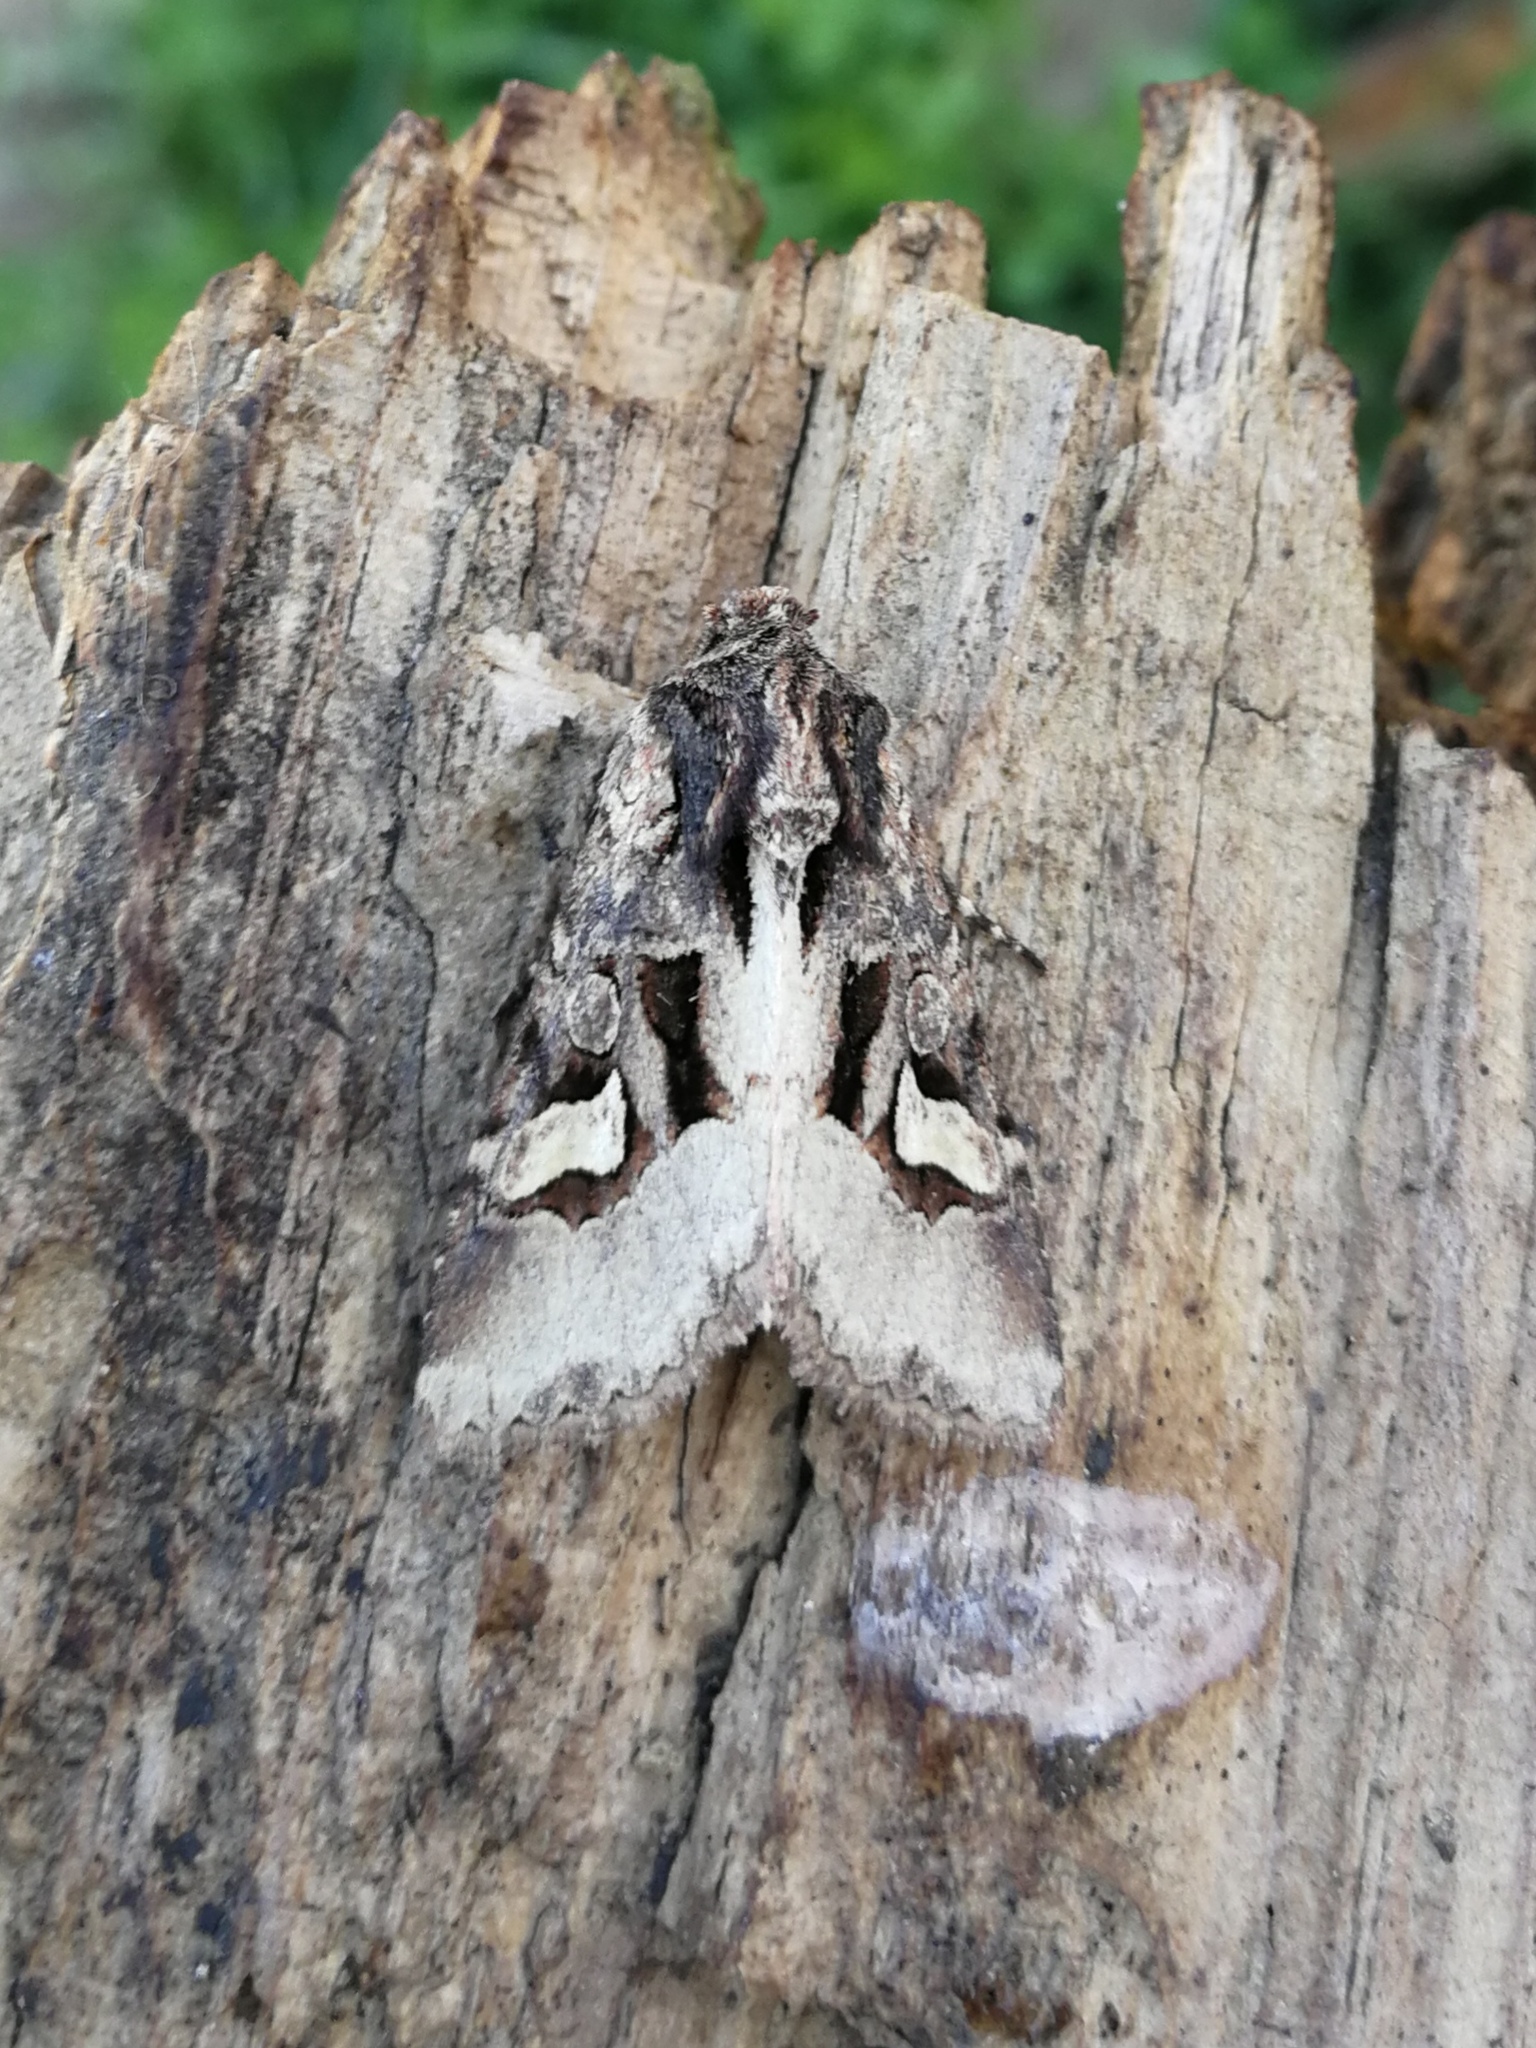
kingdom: Animalia
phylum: Arthropoda
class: Insecta
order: Lepidoptera
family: Noctuidae
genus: Trigonophora
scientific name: Trigonophora crassicornis
